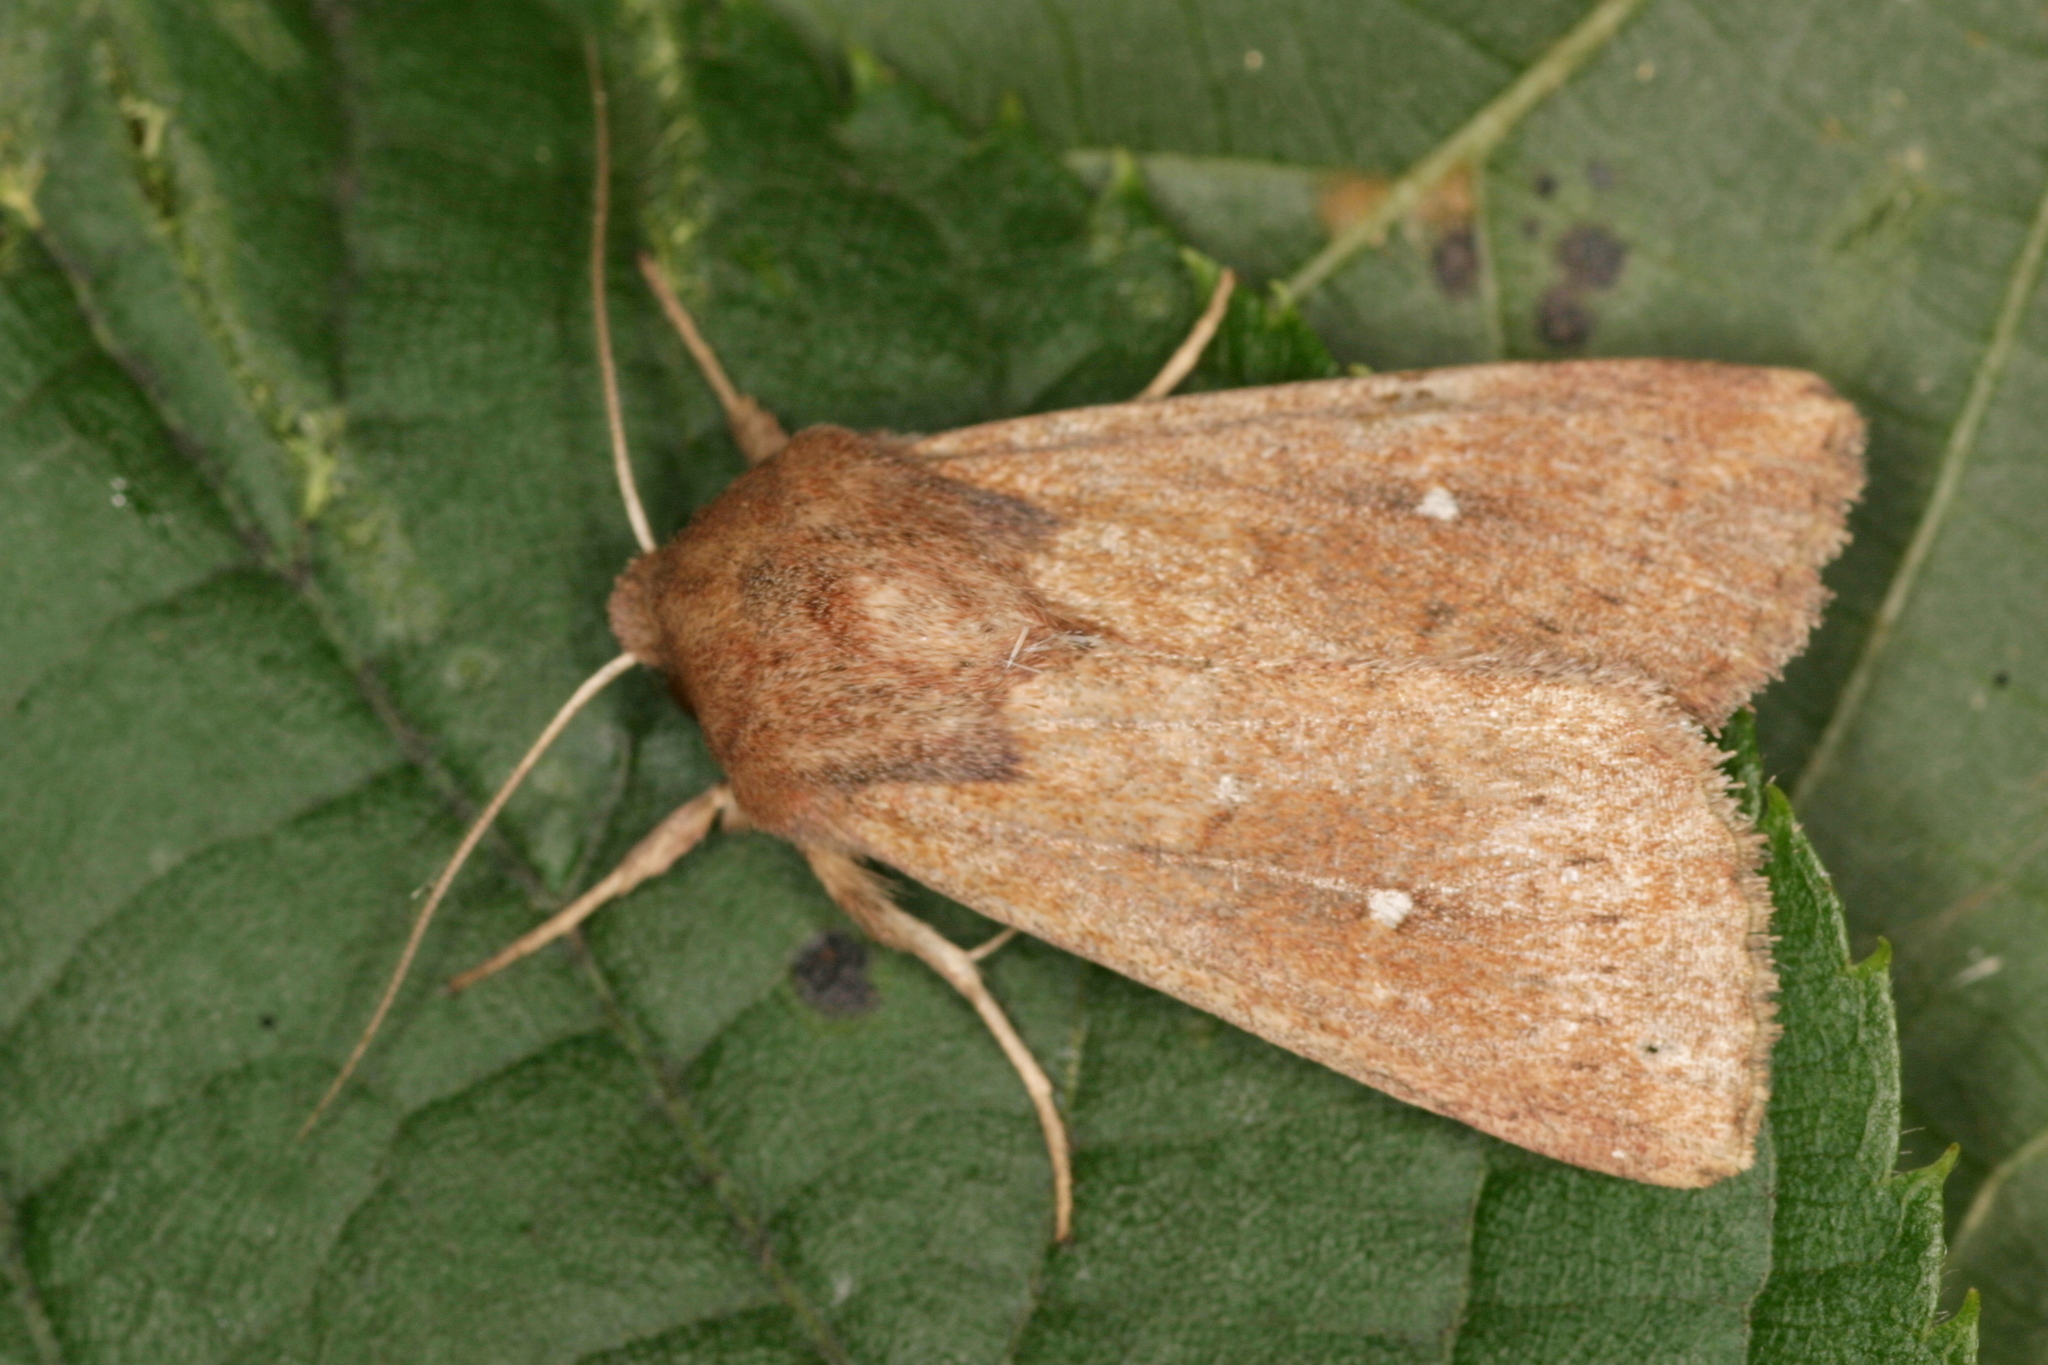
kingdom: Animalia
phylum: Arthropoda
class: Insecta
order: Lepidoptera
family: Noctuidae
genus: Mythimna
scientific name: Mythimna albipuncta
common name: White-point
